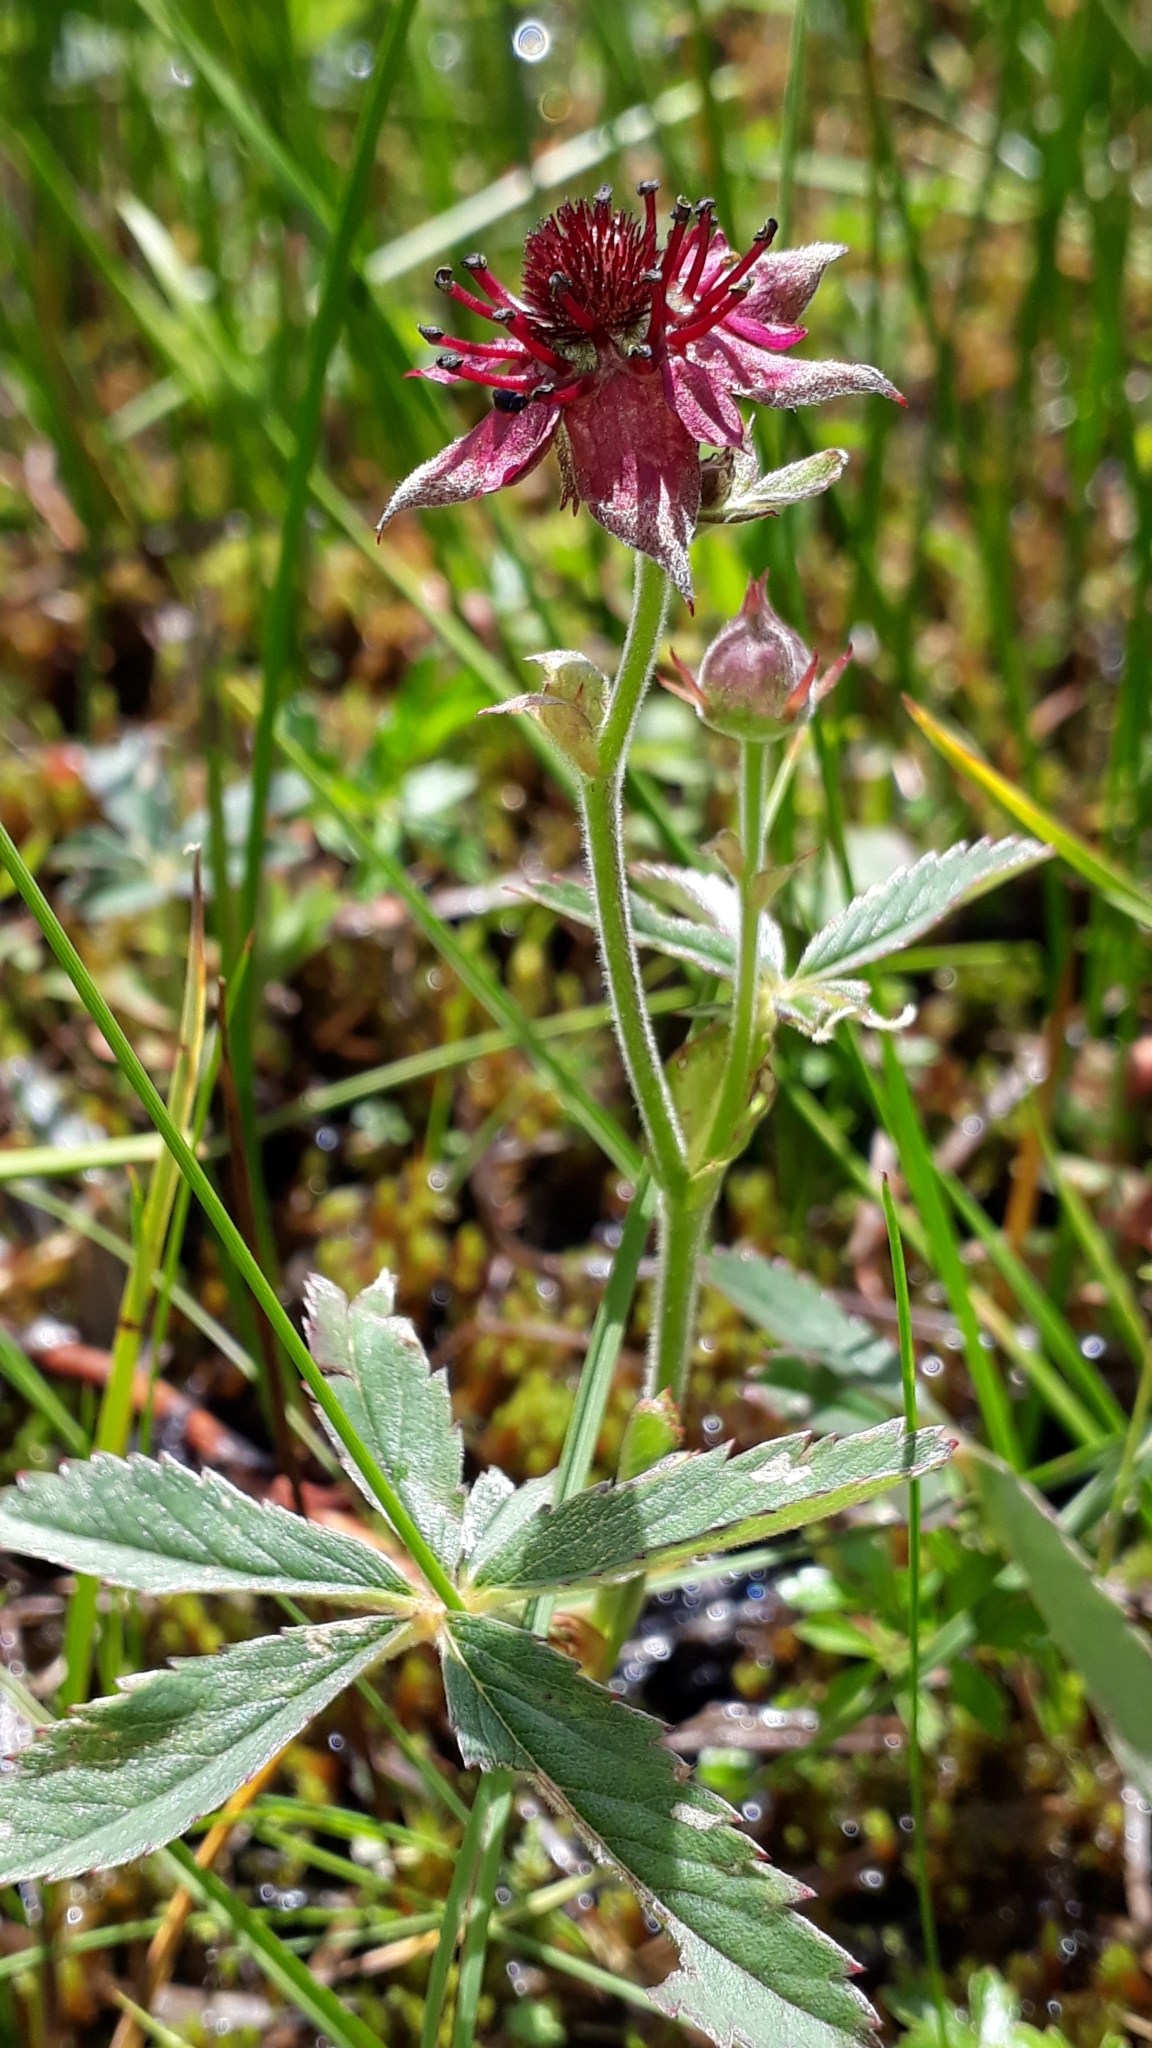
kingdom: Plantae
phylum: Tracheophyta
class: Magnoliopsida
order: Rosales
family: Rosaceae
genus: Comarum
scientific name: Comarum palustre
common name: Marsh cinquefoil
